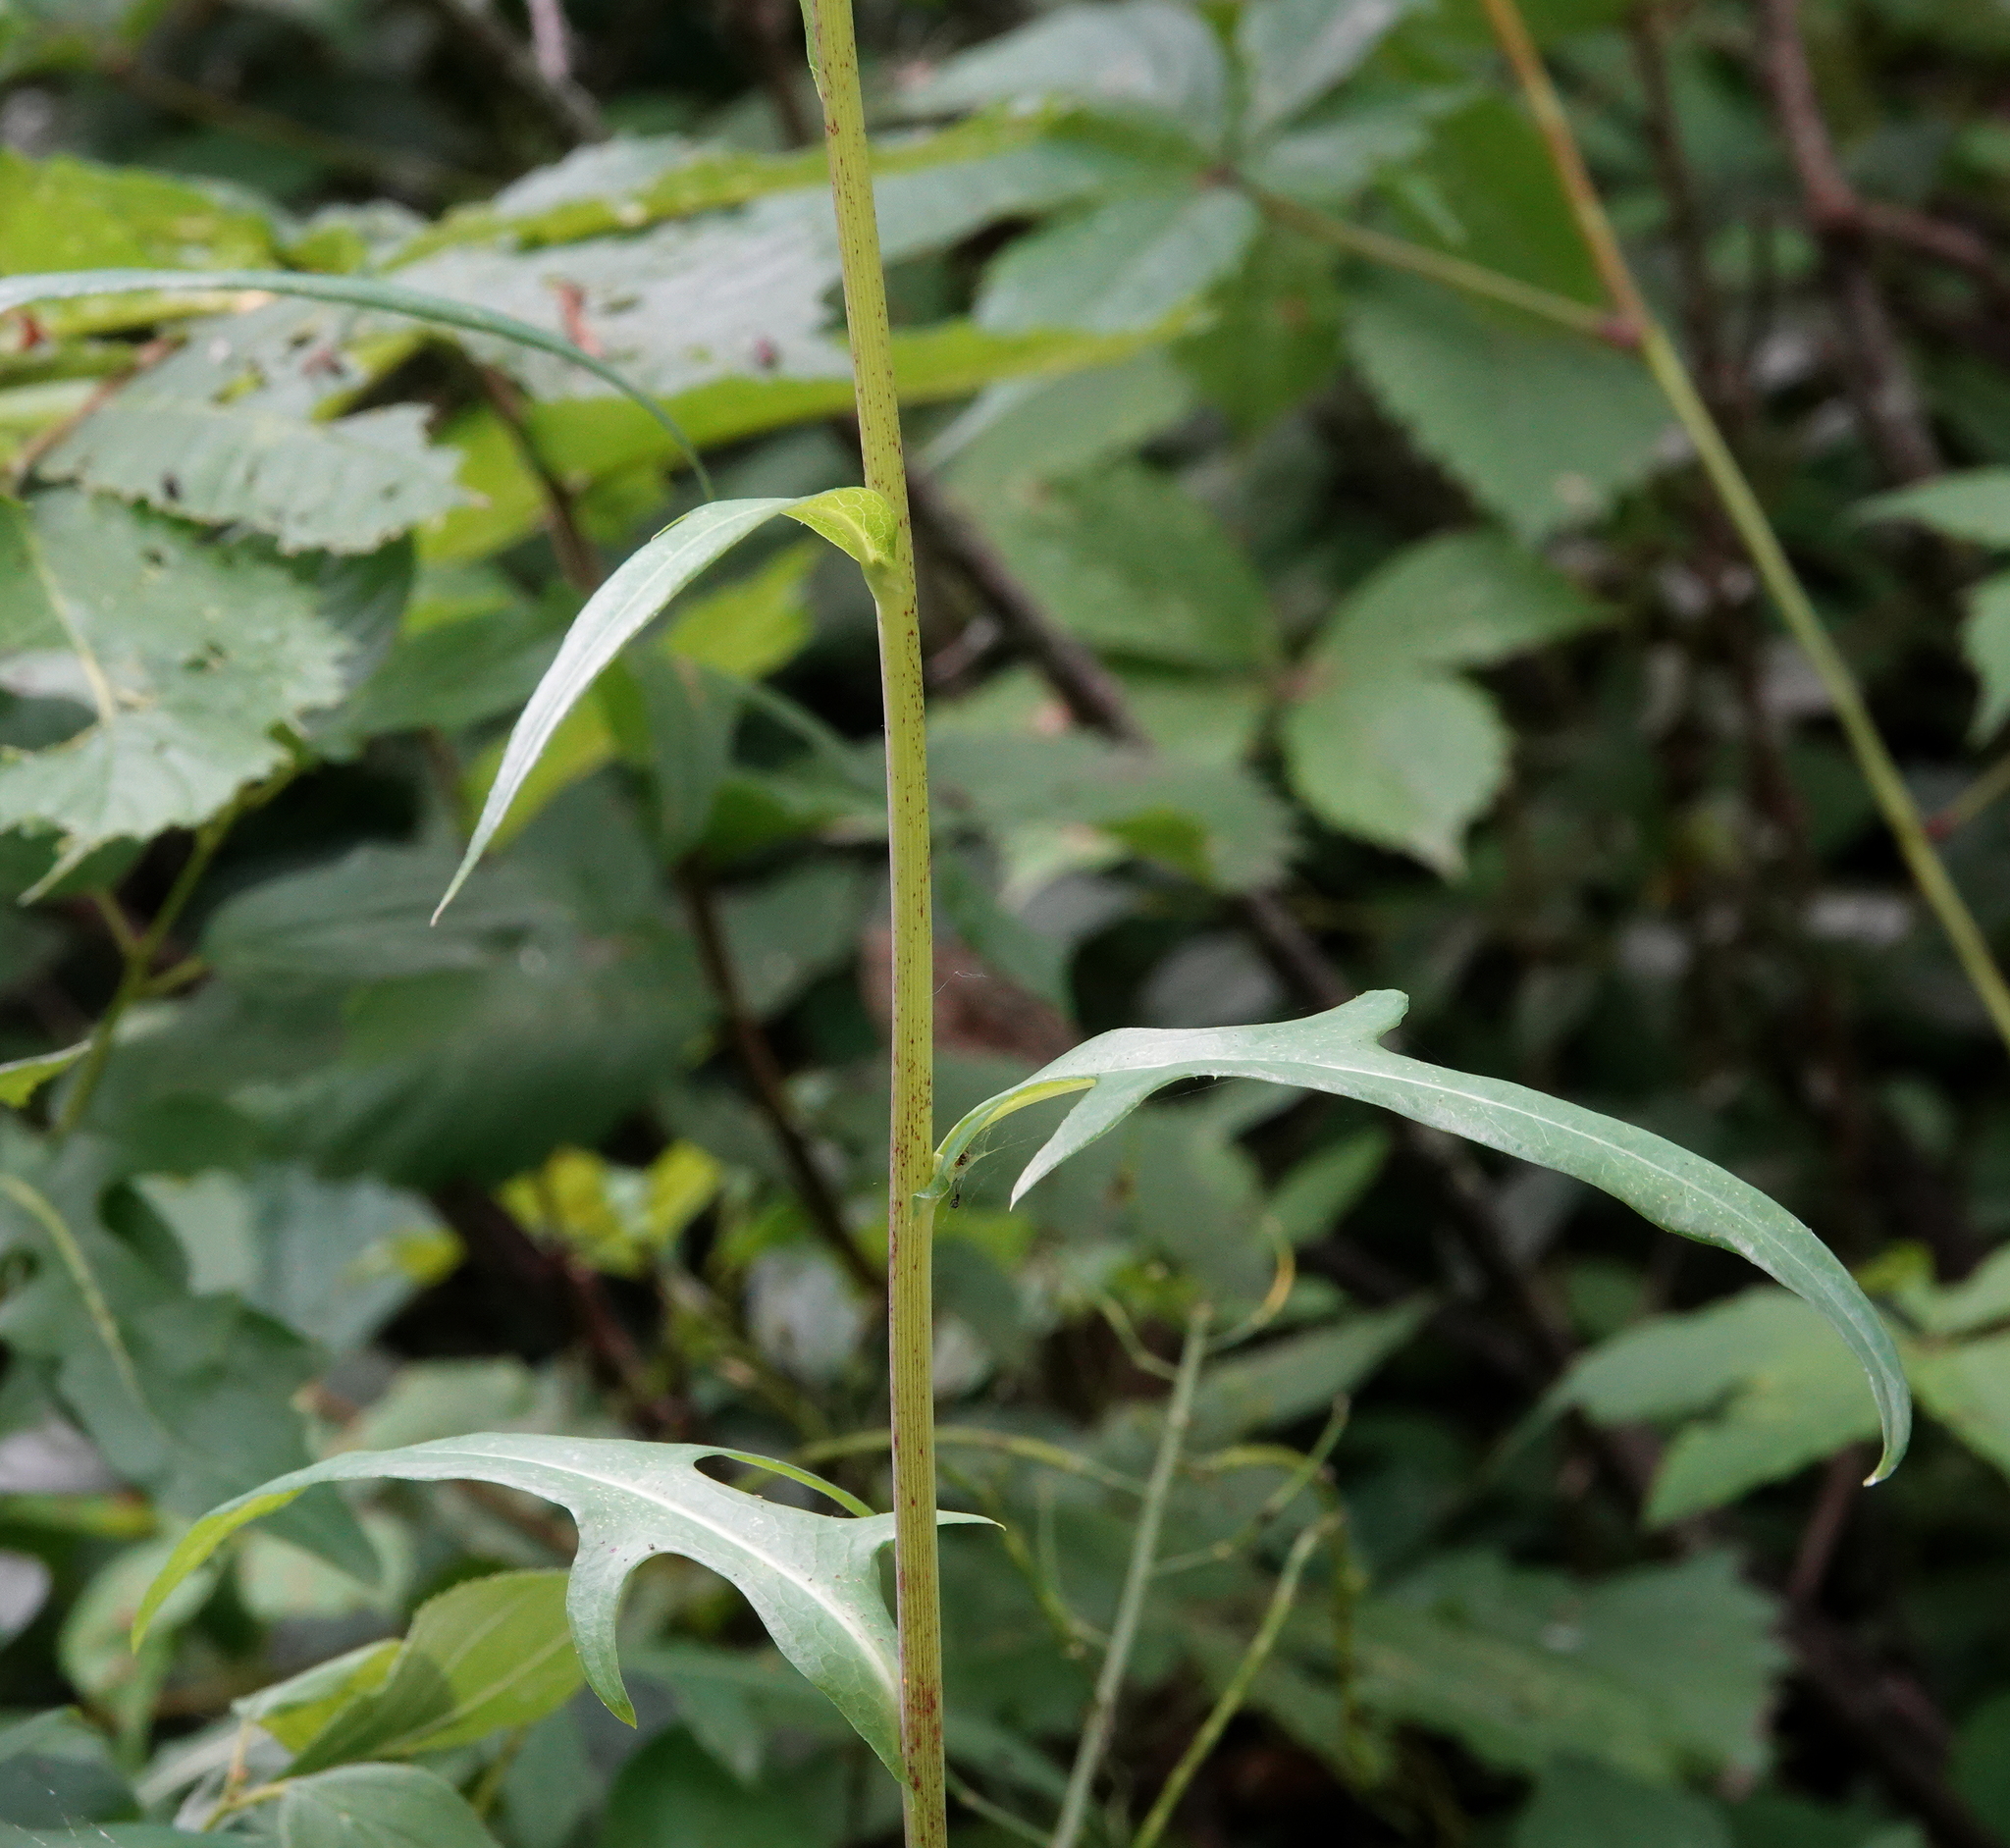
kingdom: Plantae
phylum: Tracheophyta
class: Magnoliopsida
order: Asterales
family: Asteraceae
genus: Lactuca
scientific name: Lactuca canadensis
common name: Canada lettuce
